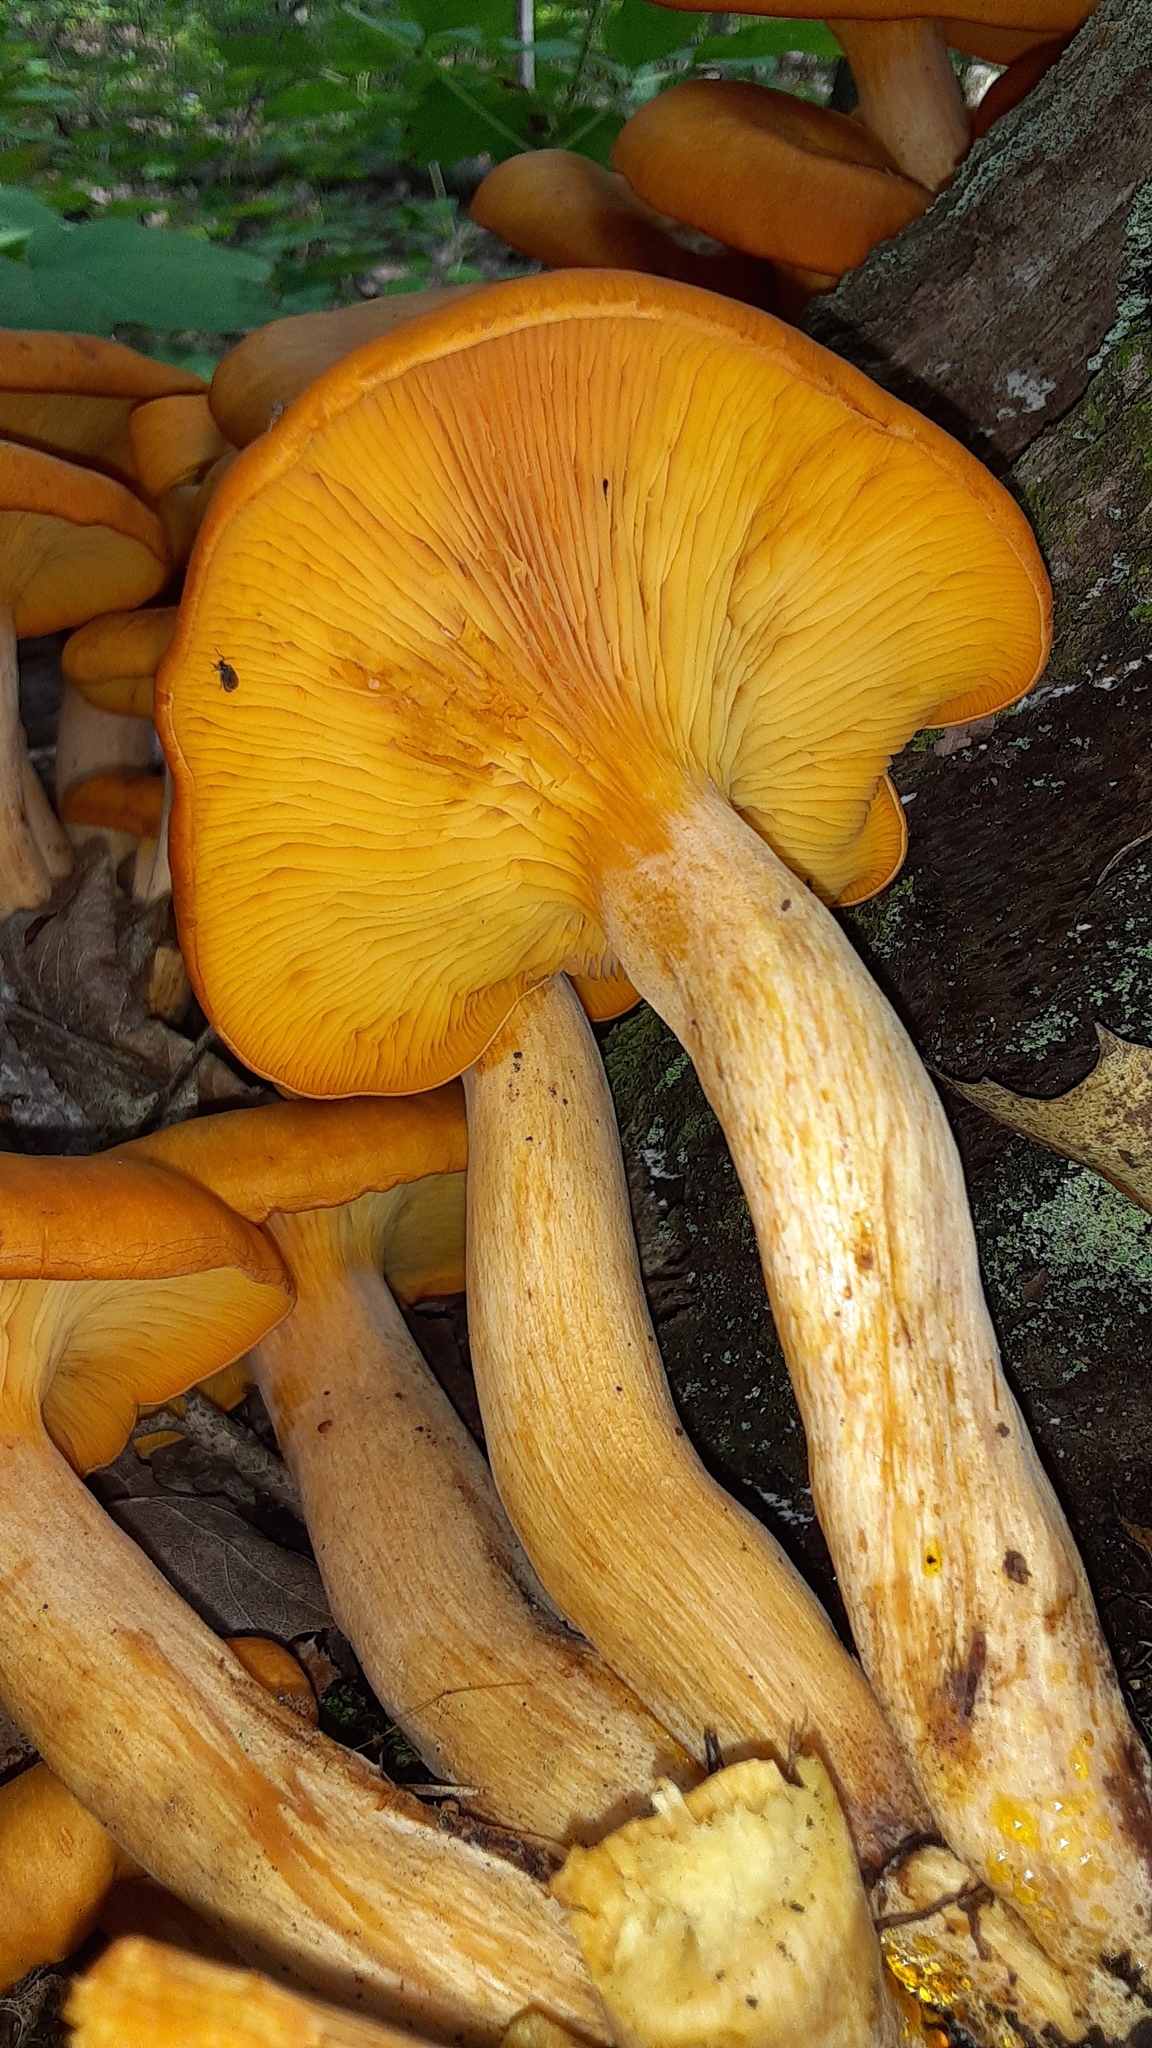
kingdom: Fungi
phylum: Basidiomycota
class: Agaricomycetes
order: Agaricales
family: Omphalotaceae
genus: Omphalotus
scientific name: Omphalotus illudens
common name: Jack o lantern
